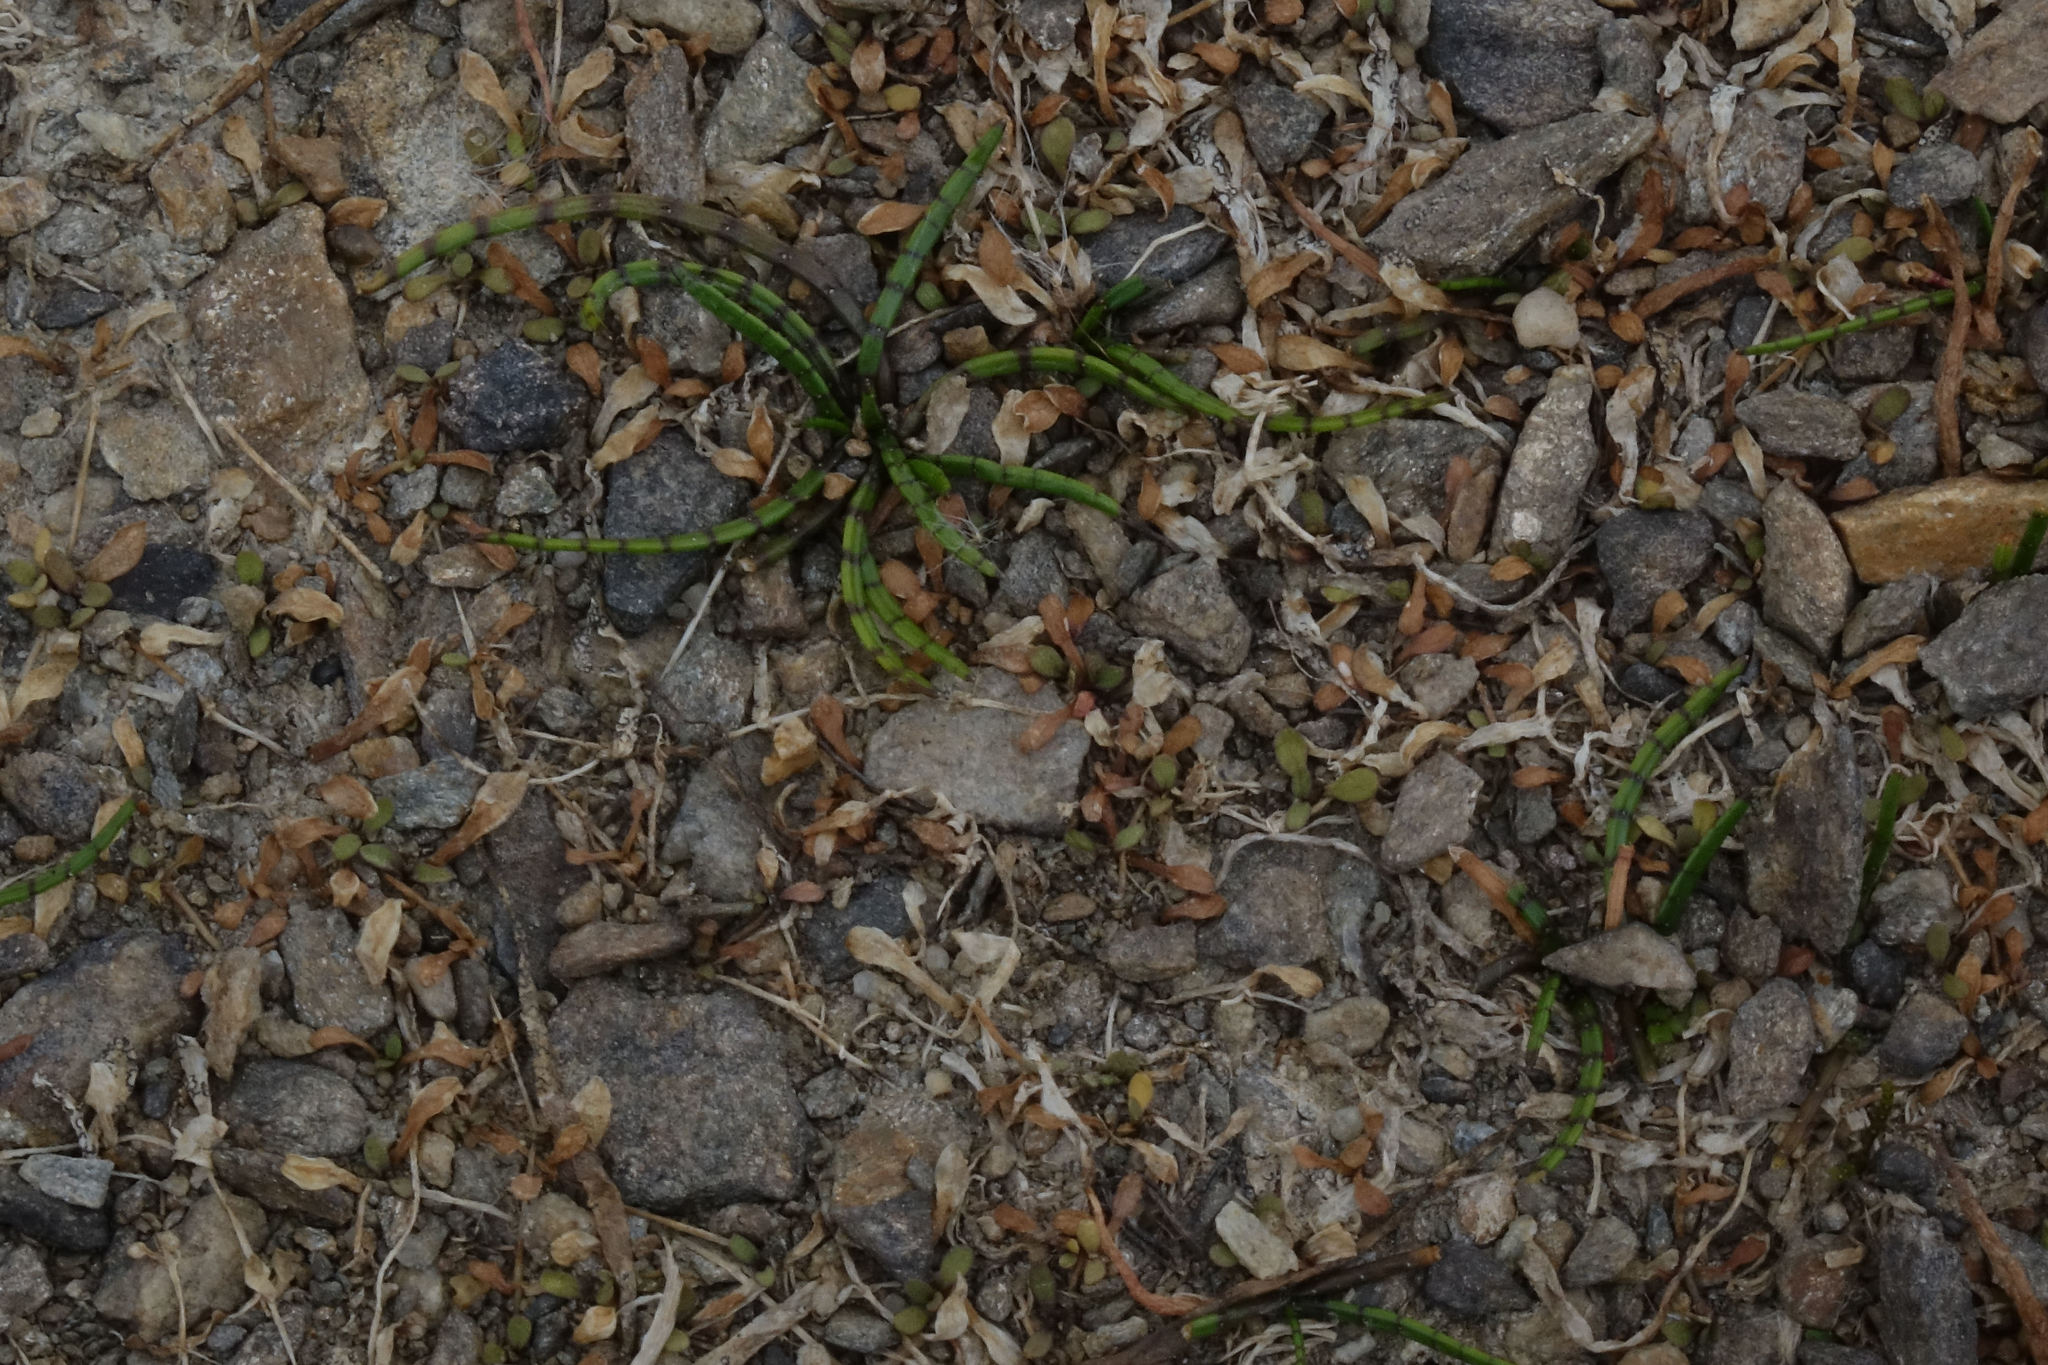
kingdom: Plantae
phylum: Tracheophyta
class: Magnoliopsida
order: Apiales
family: Apiaceae
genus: Lilaeopsis
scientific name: Lilaeopsis novae-zelandiae
